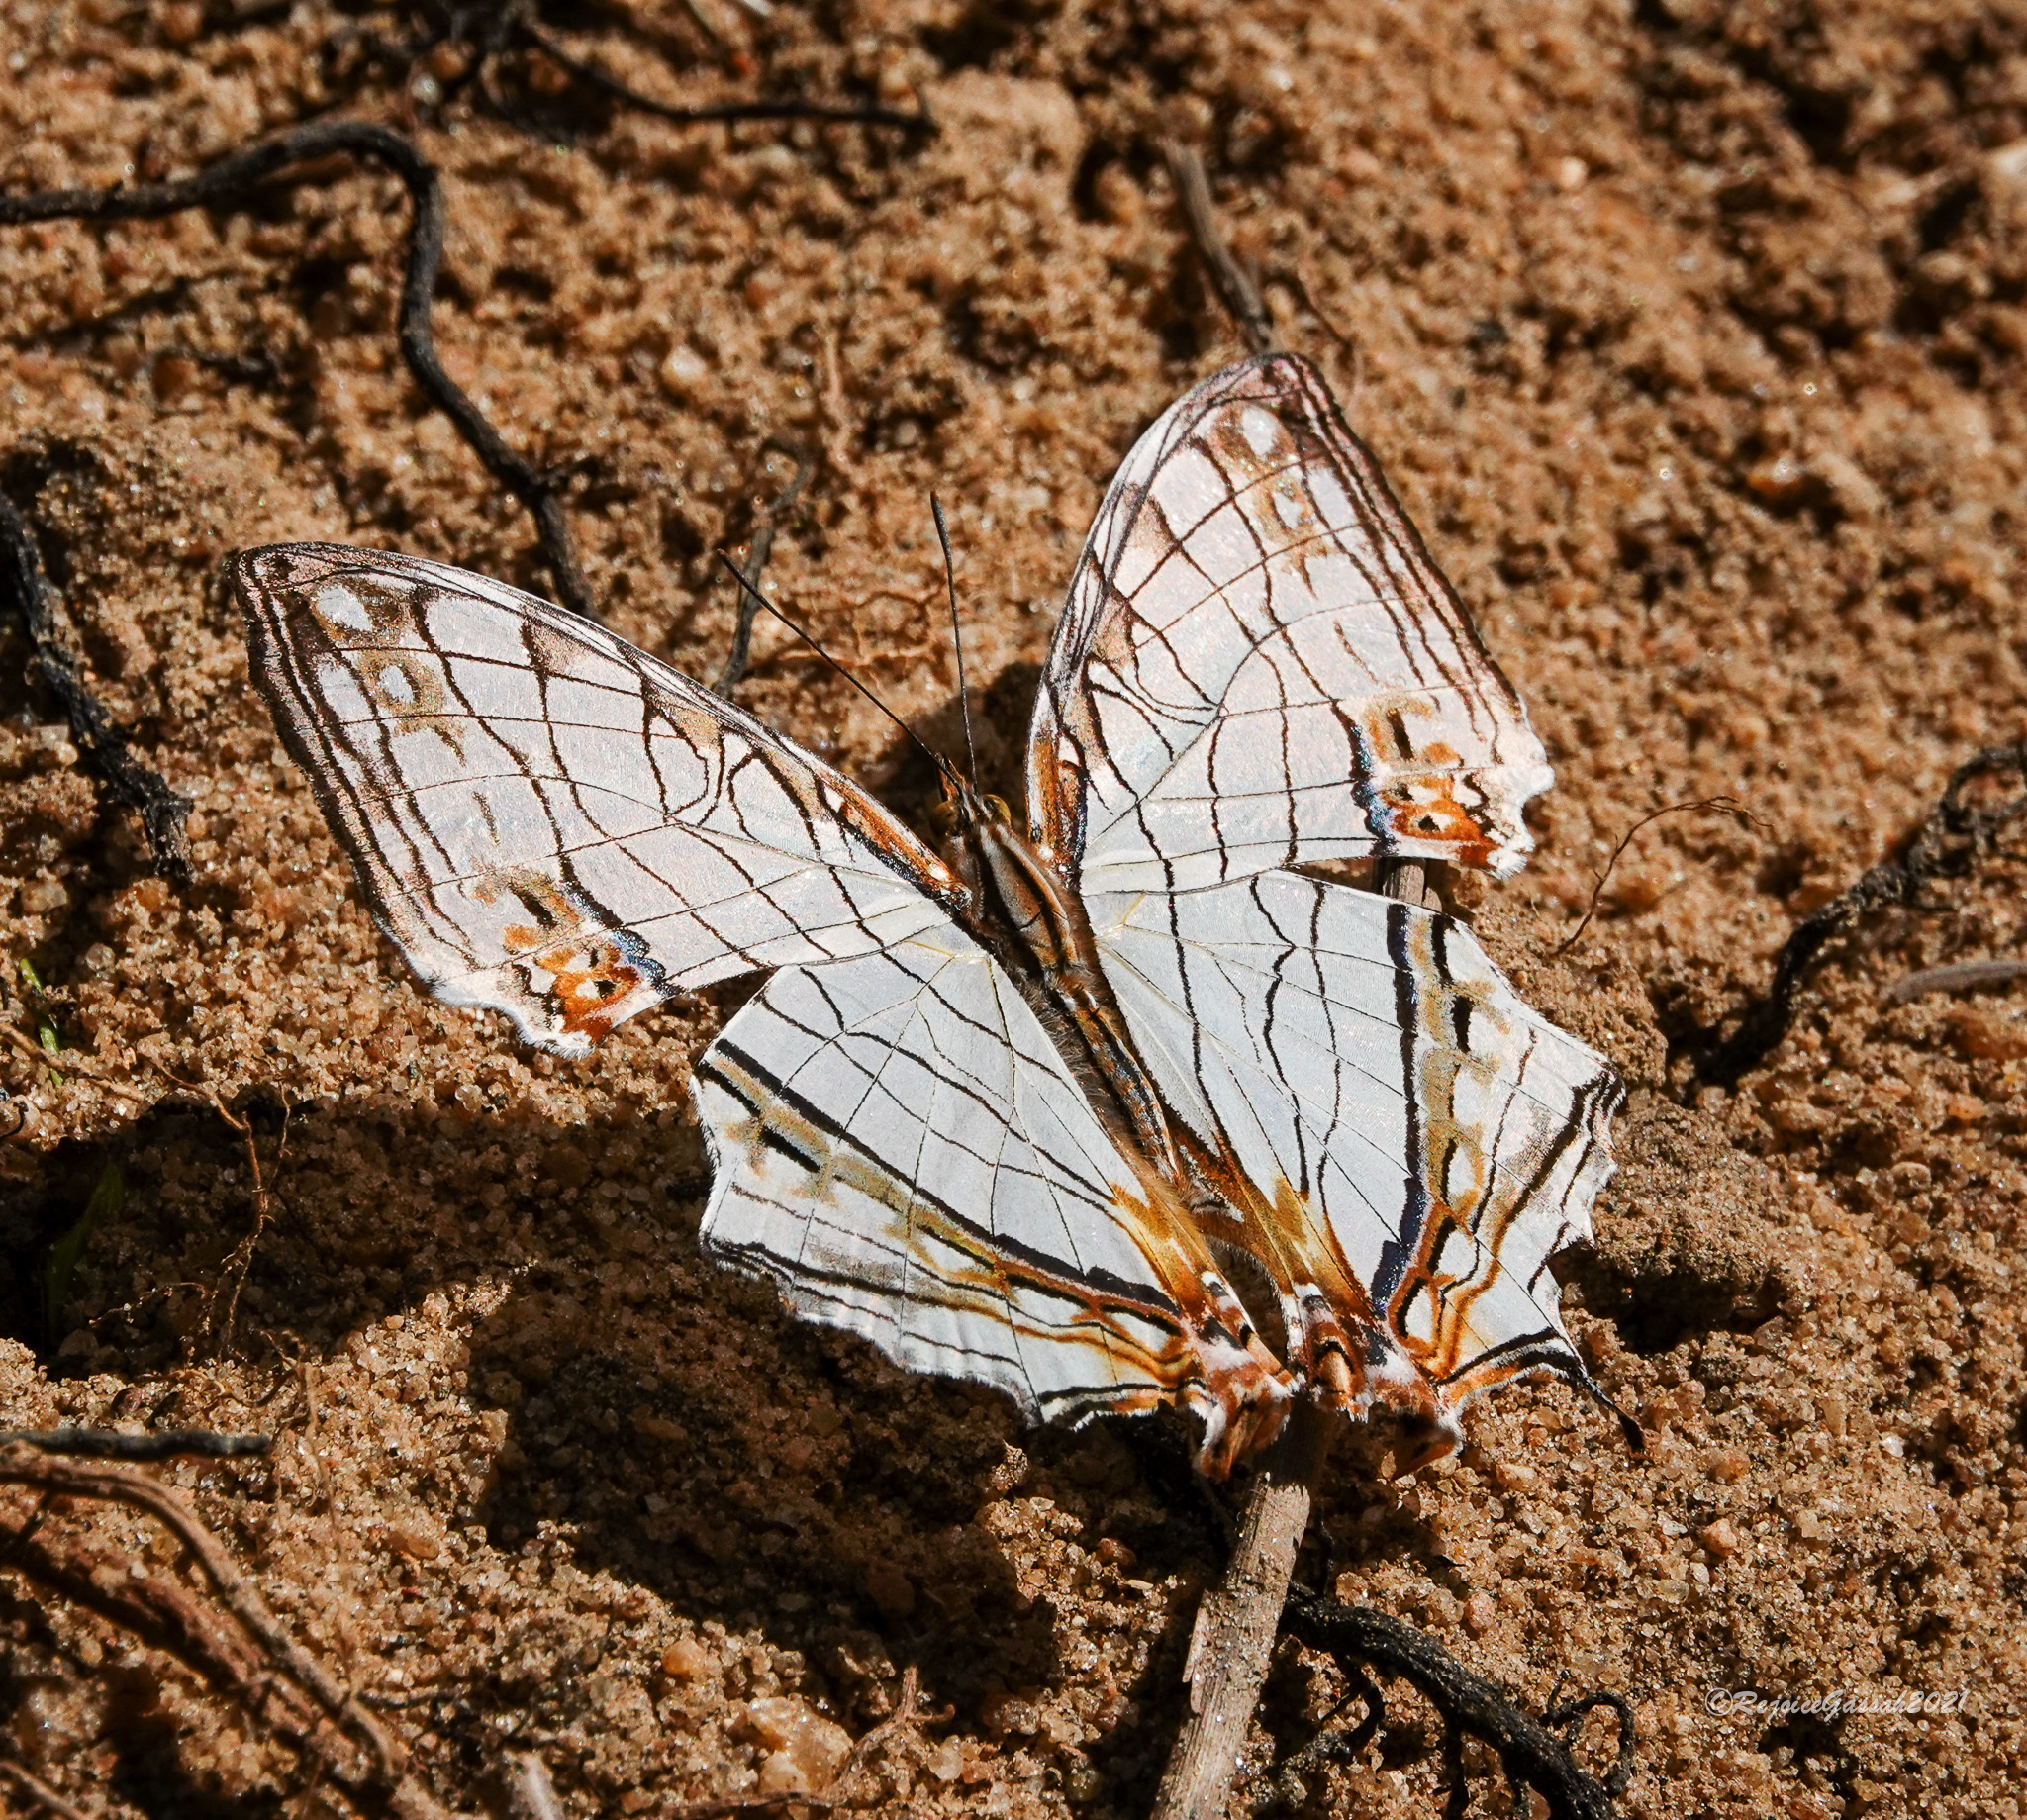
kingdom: Animalia
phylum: Arthropoda
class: Insecta
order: Lepidoptera
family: Nymphalidae
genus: Cyrestis
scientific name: Cyrestis thyodamas
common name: Common mapwing
